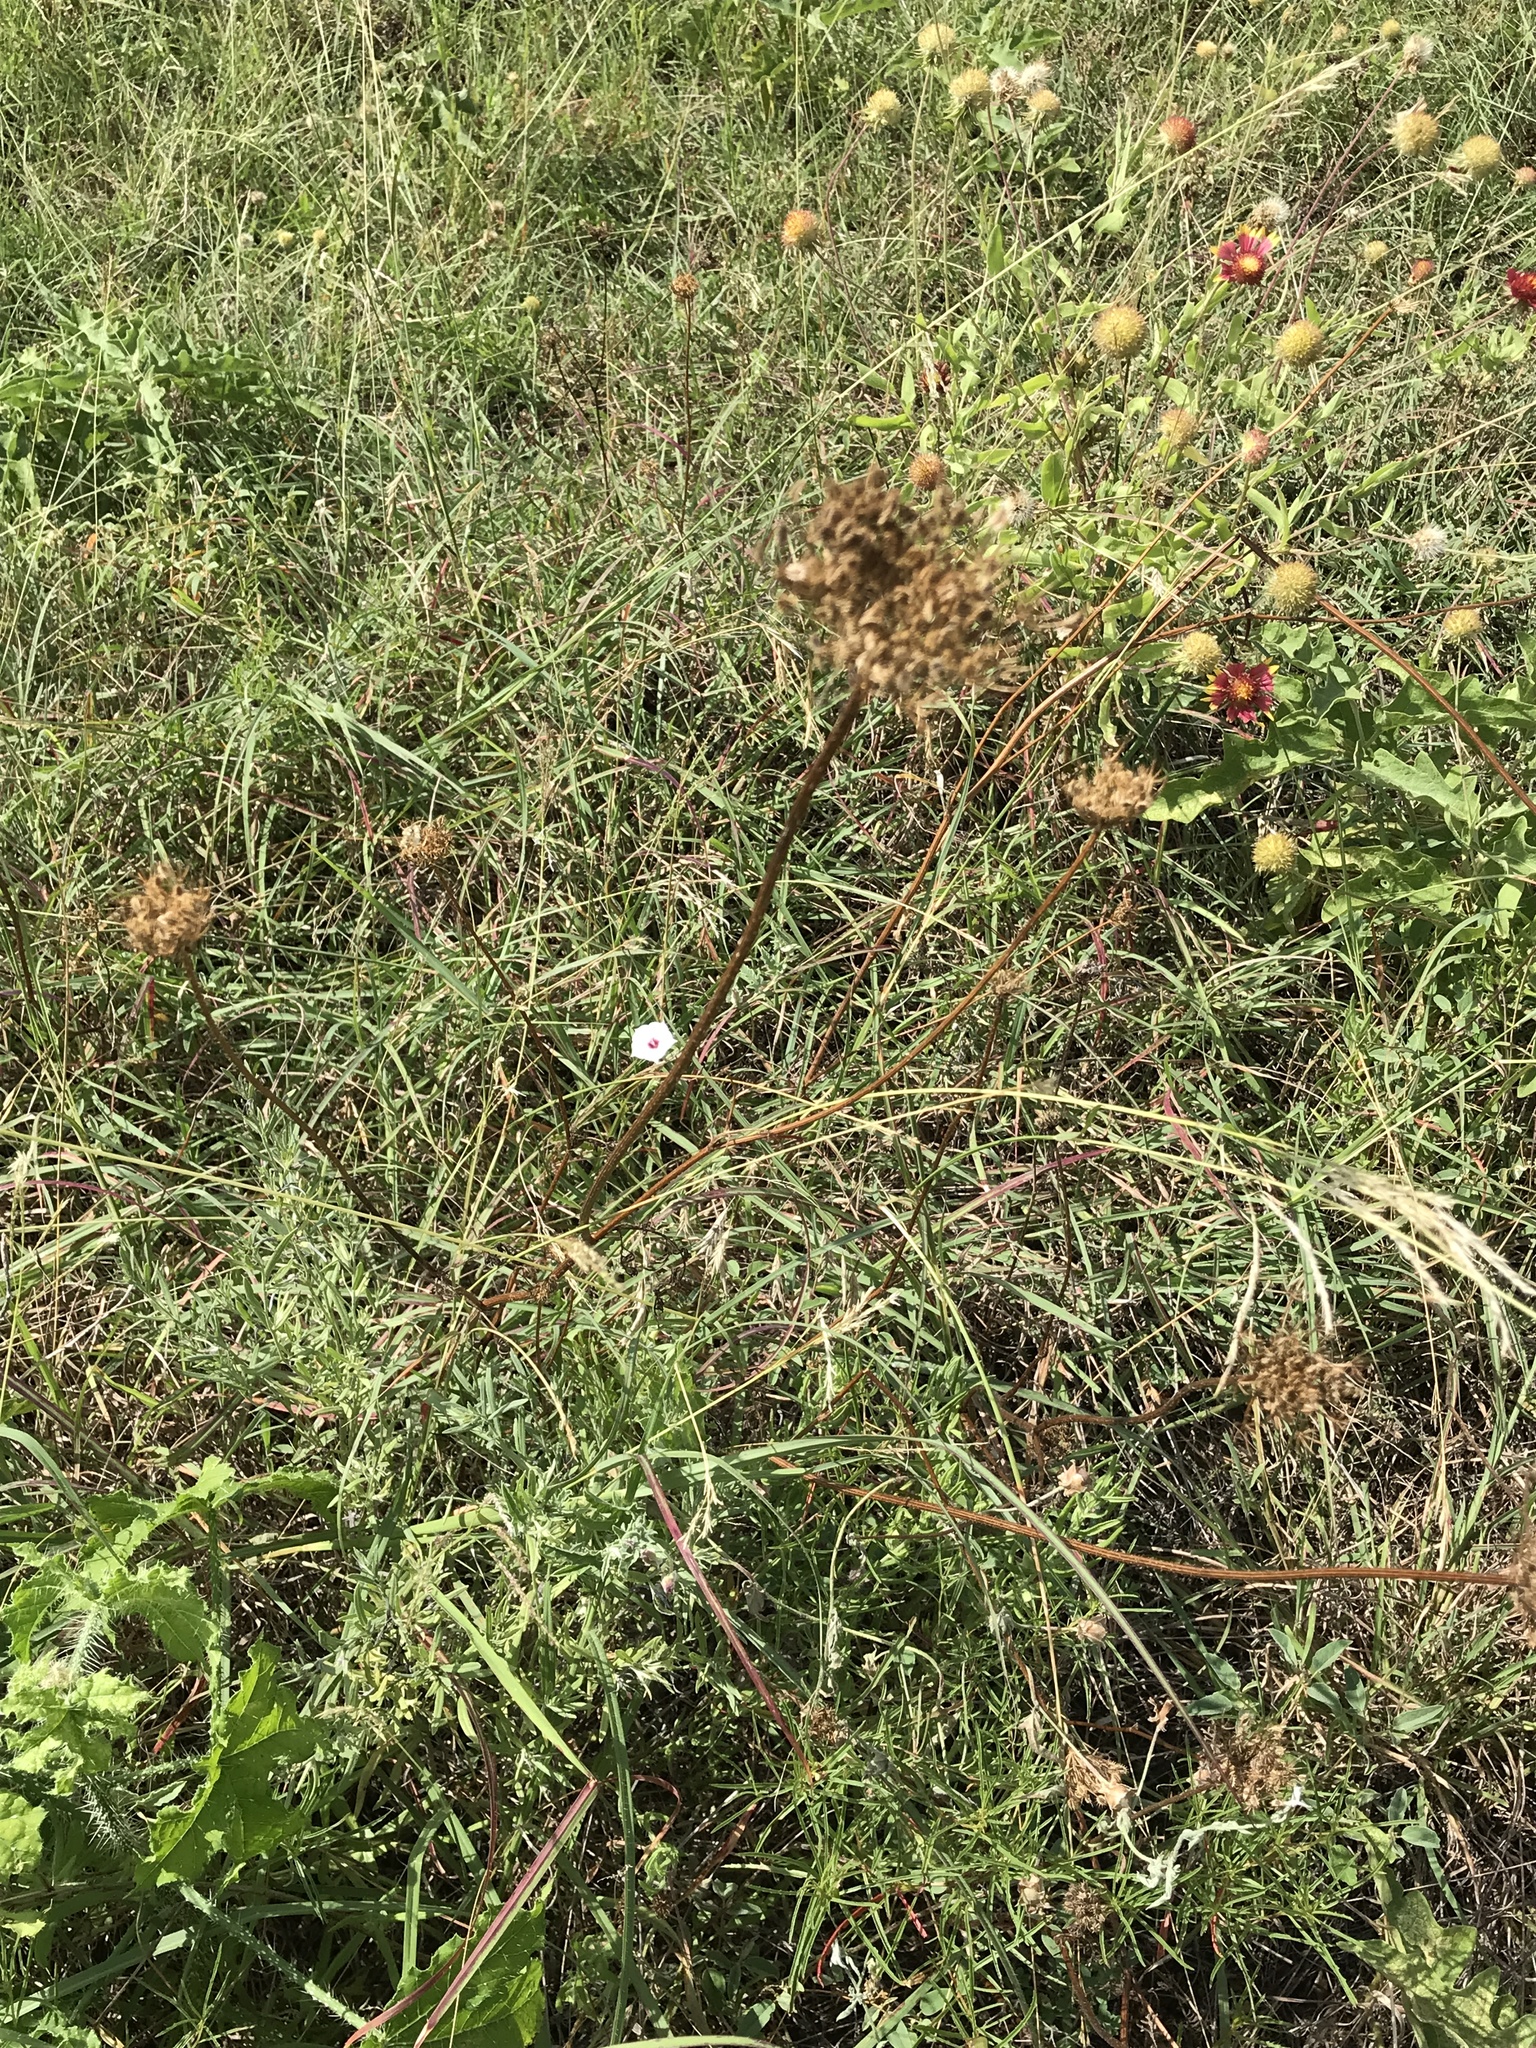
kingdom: Plantae
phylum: Tracheophyta
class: Magnoliopsida
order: Apiales
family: Apiaceae
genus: Daucus
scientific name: Daucus carota
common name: Wild carrot
